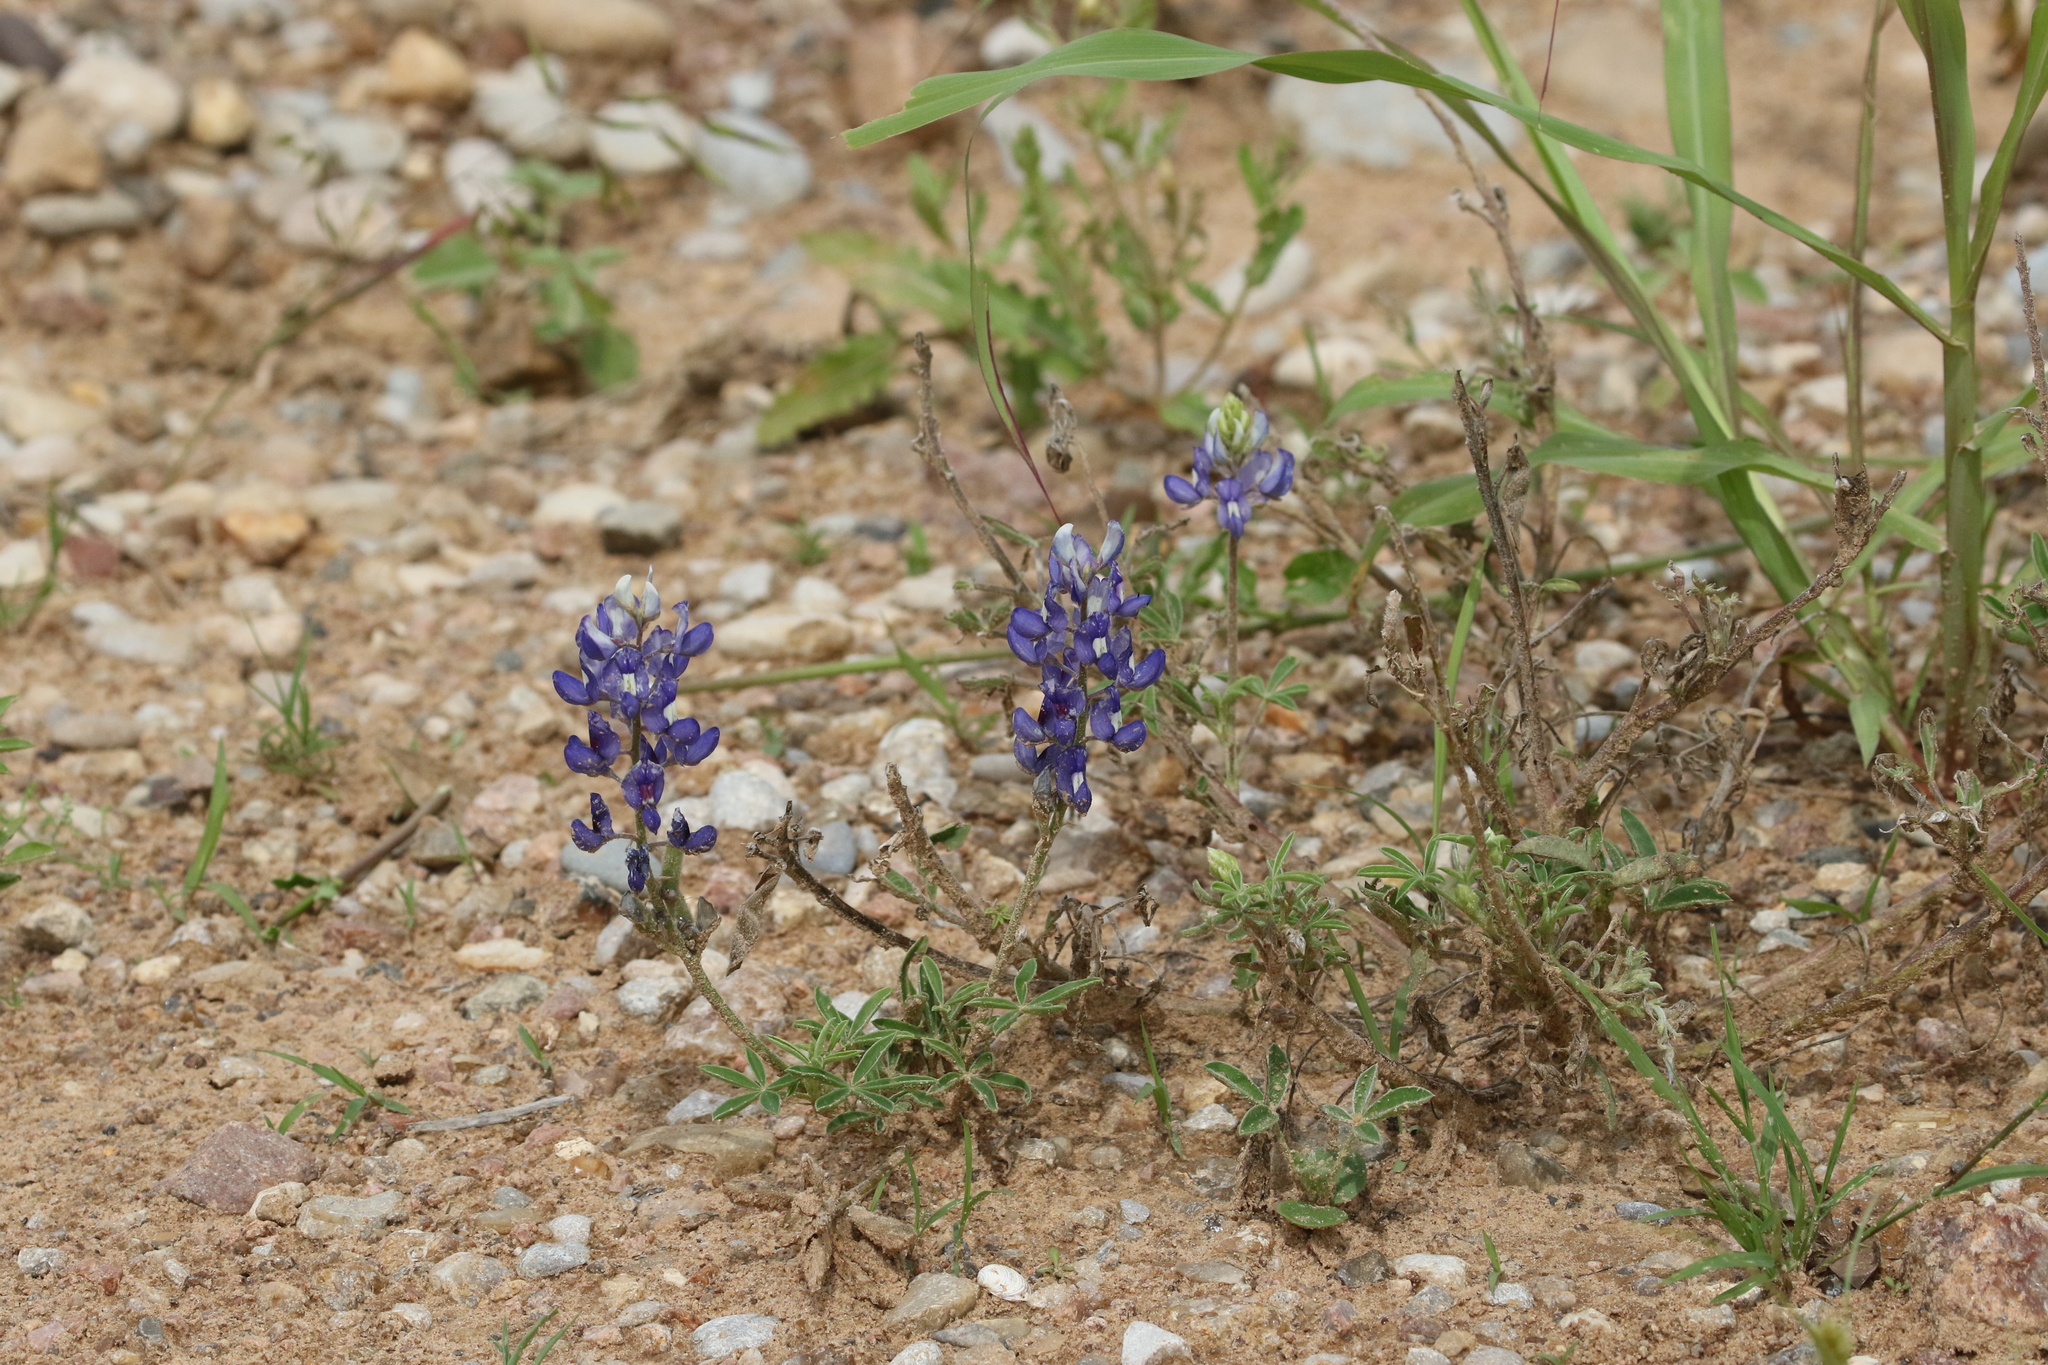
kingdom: Plantae
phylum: Tracheophyta
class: Magnoliopsida
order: Fabales
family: Fabaceae
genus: Lupinus
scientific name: Lupinus texensis
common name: Texas bluebonnet
